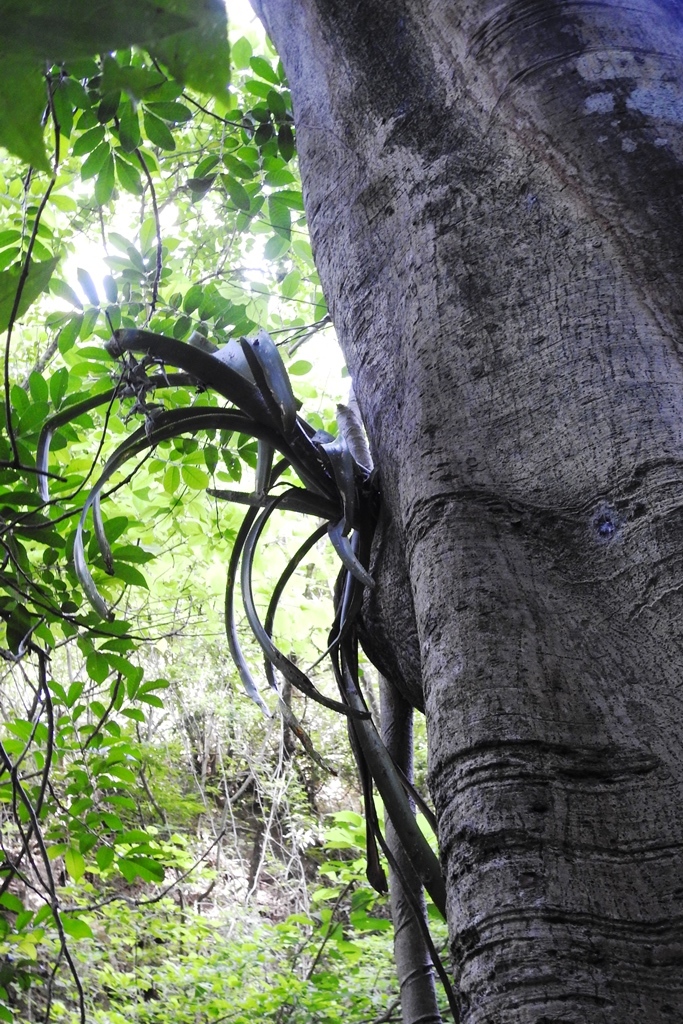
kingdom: Plantae
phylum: Tracheophyta
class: Liliopsida
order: Poales
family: Bromeliaceae
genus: Billbergia
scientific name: Billbergia pallidiflora
